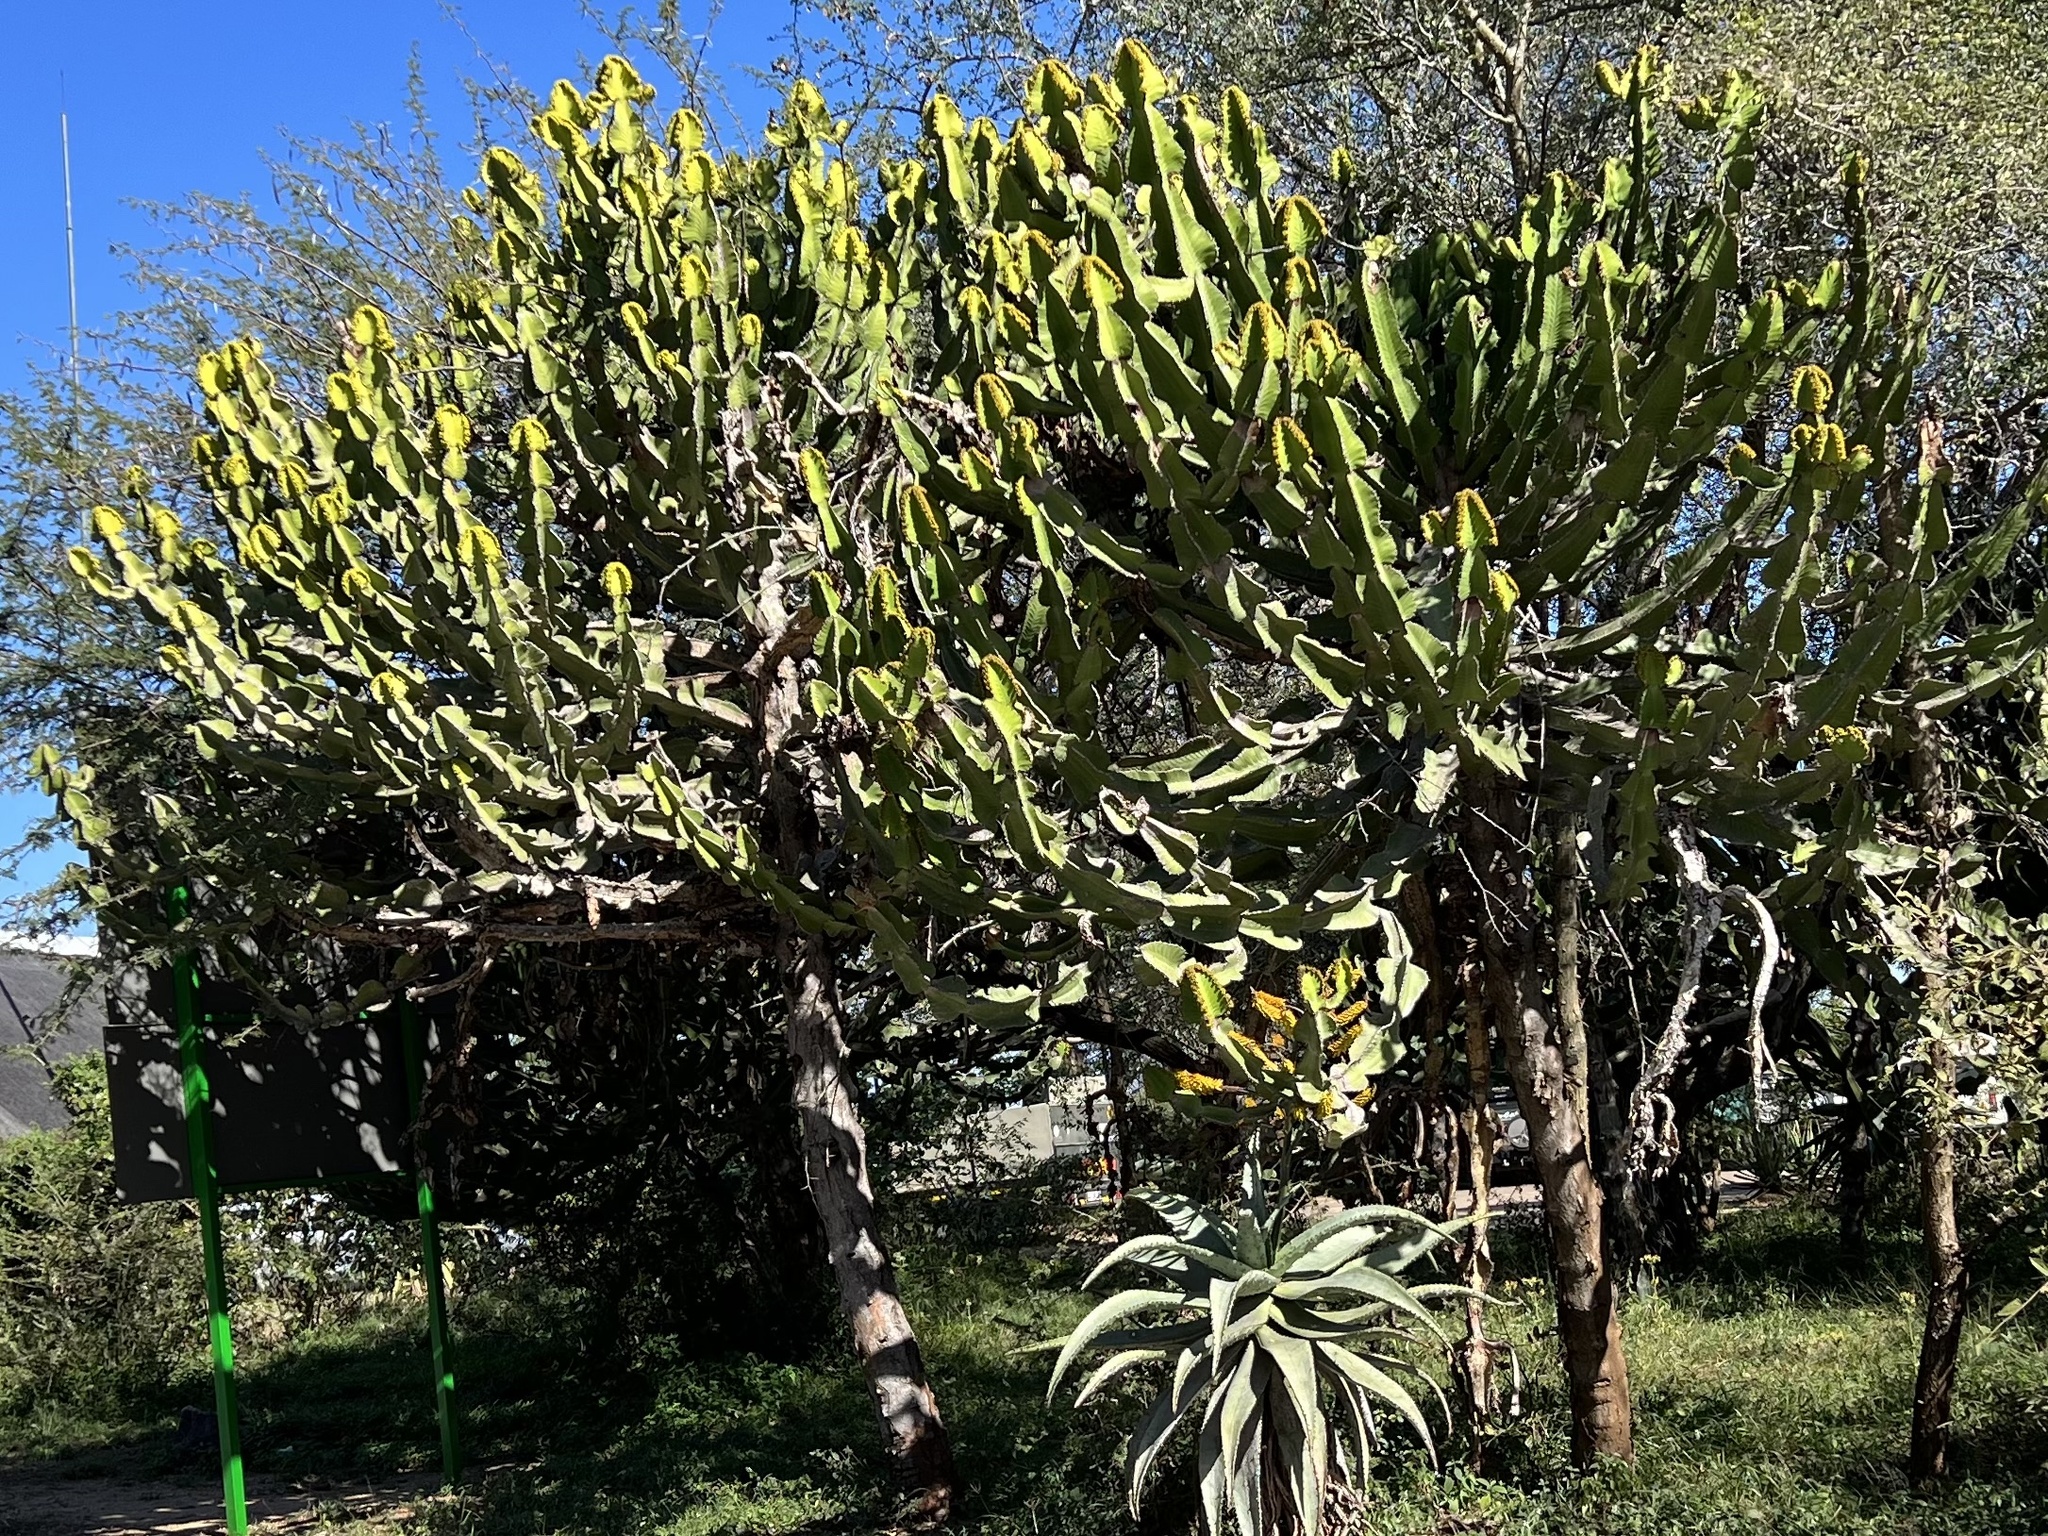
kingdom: Plantae
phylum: Tracheophyta
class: Magnoliopsida
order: Malpighiales
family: Euphorbiaceae
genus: Euphorbia
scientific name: Euphorbia cooperi
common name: Candelabra tree
